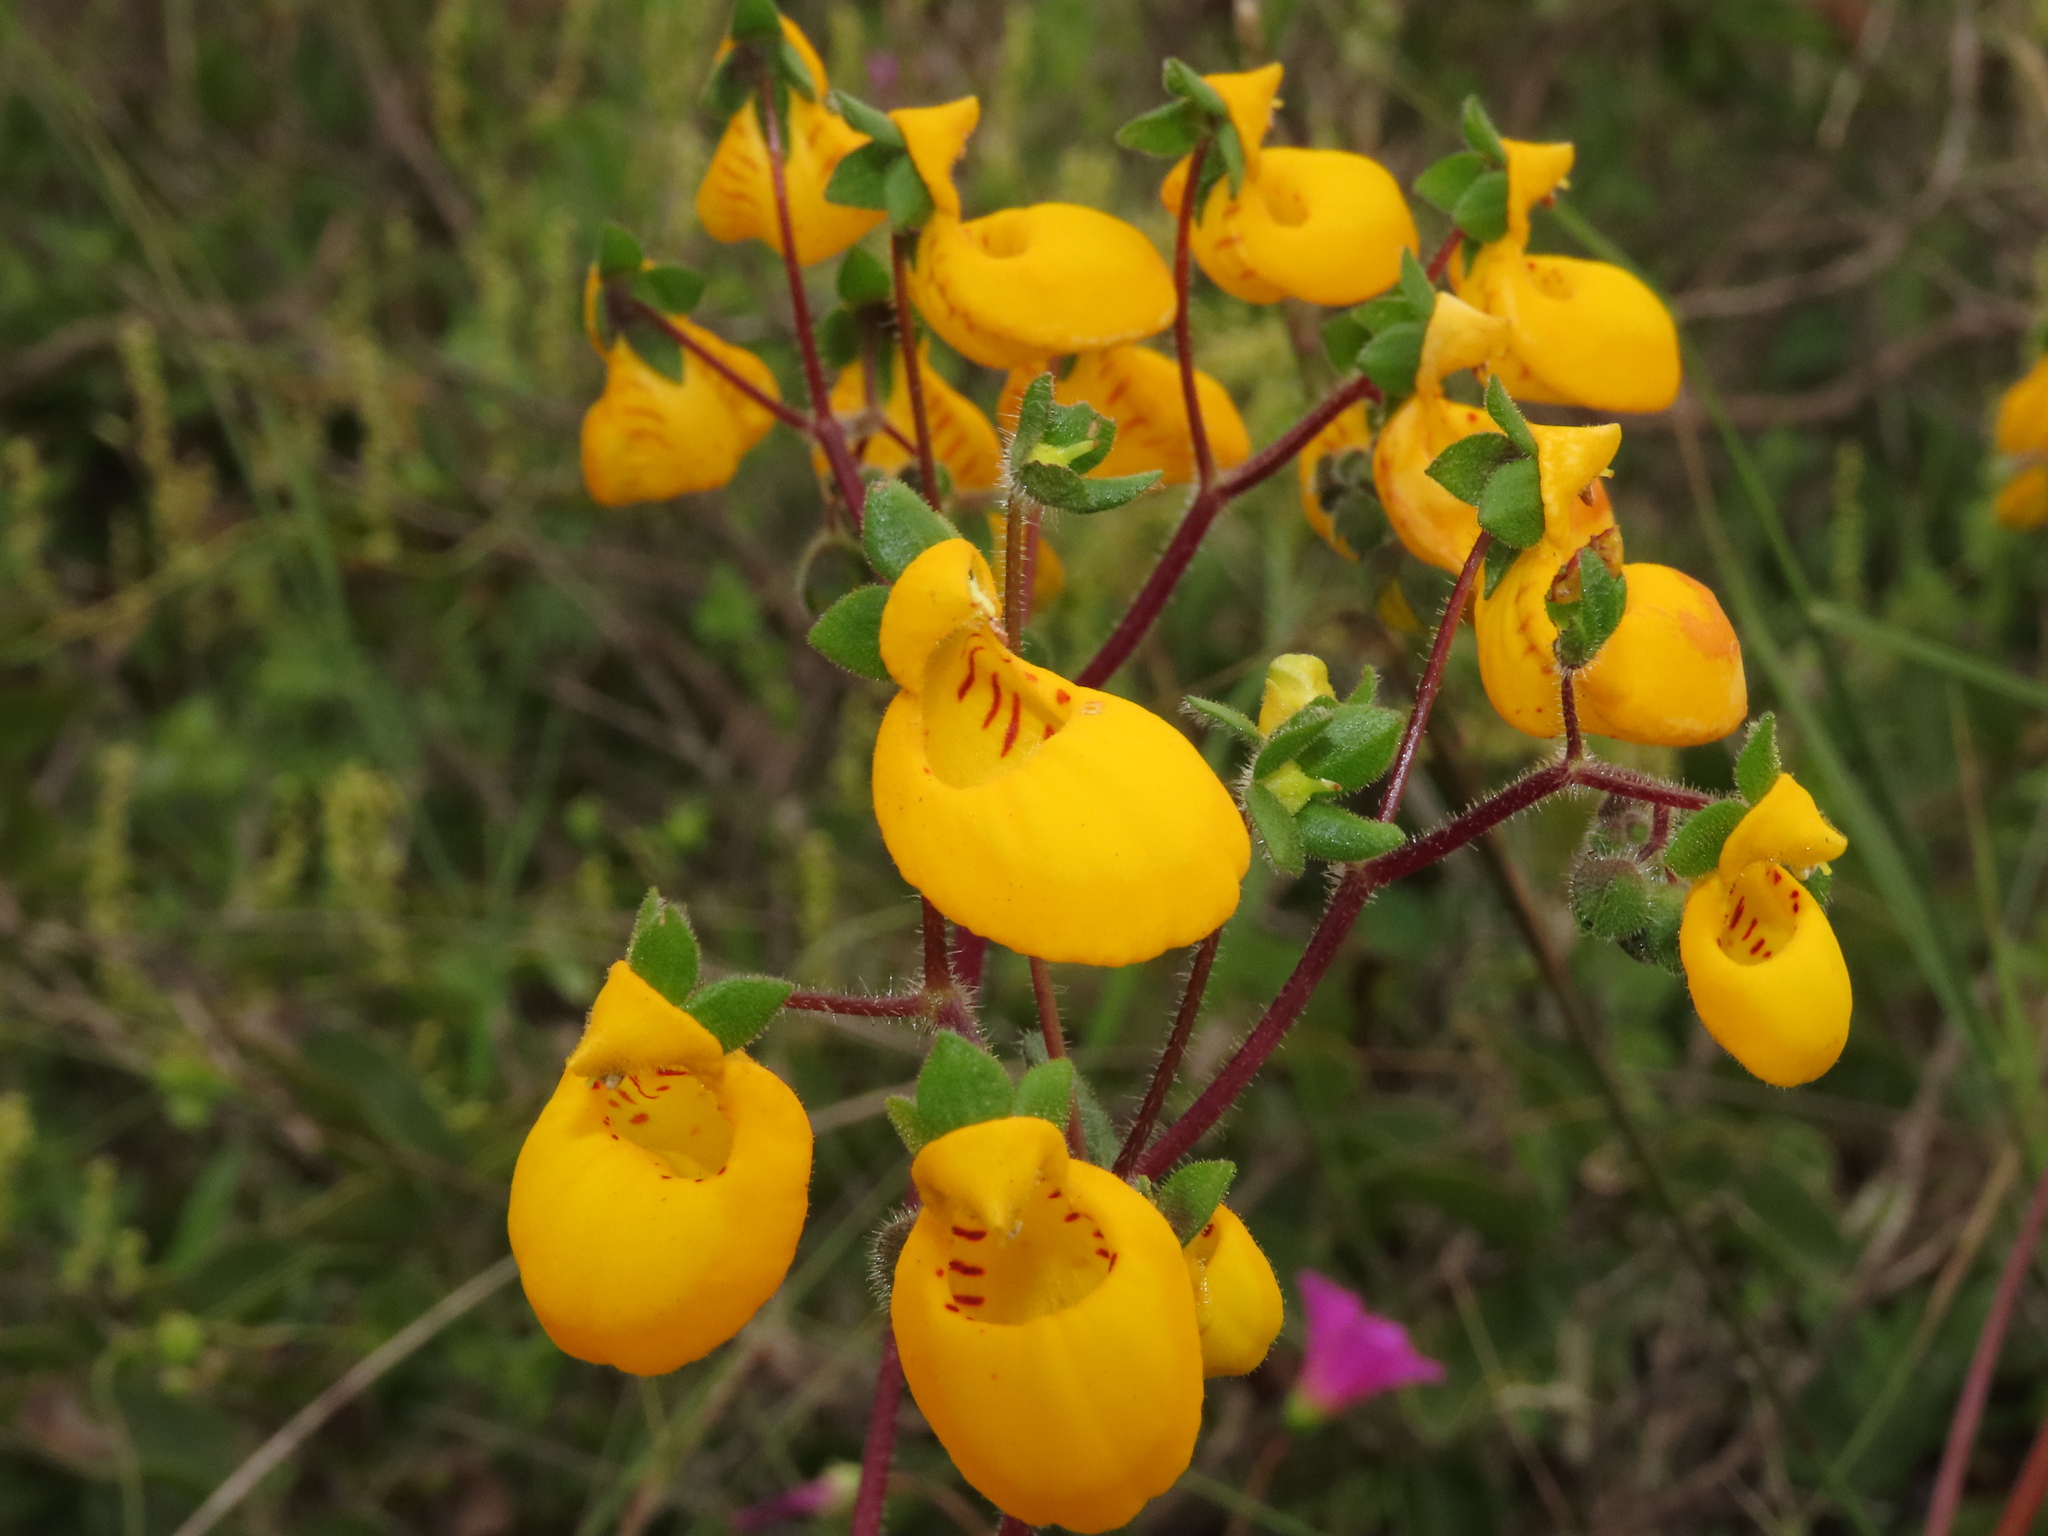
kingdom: Plantae
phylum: Tracheophyta
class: Magnoliopsida
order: Lamiales
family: Calceolariaceae
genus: Calceolaria
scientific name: Calceolaria corymbosa
